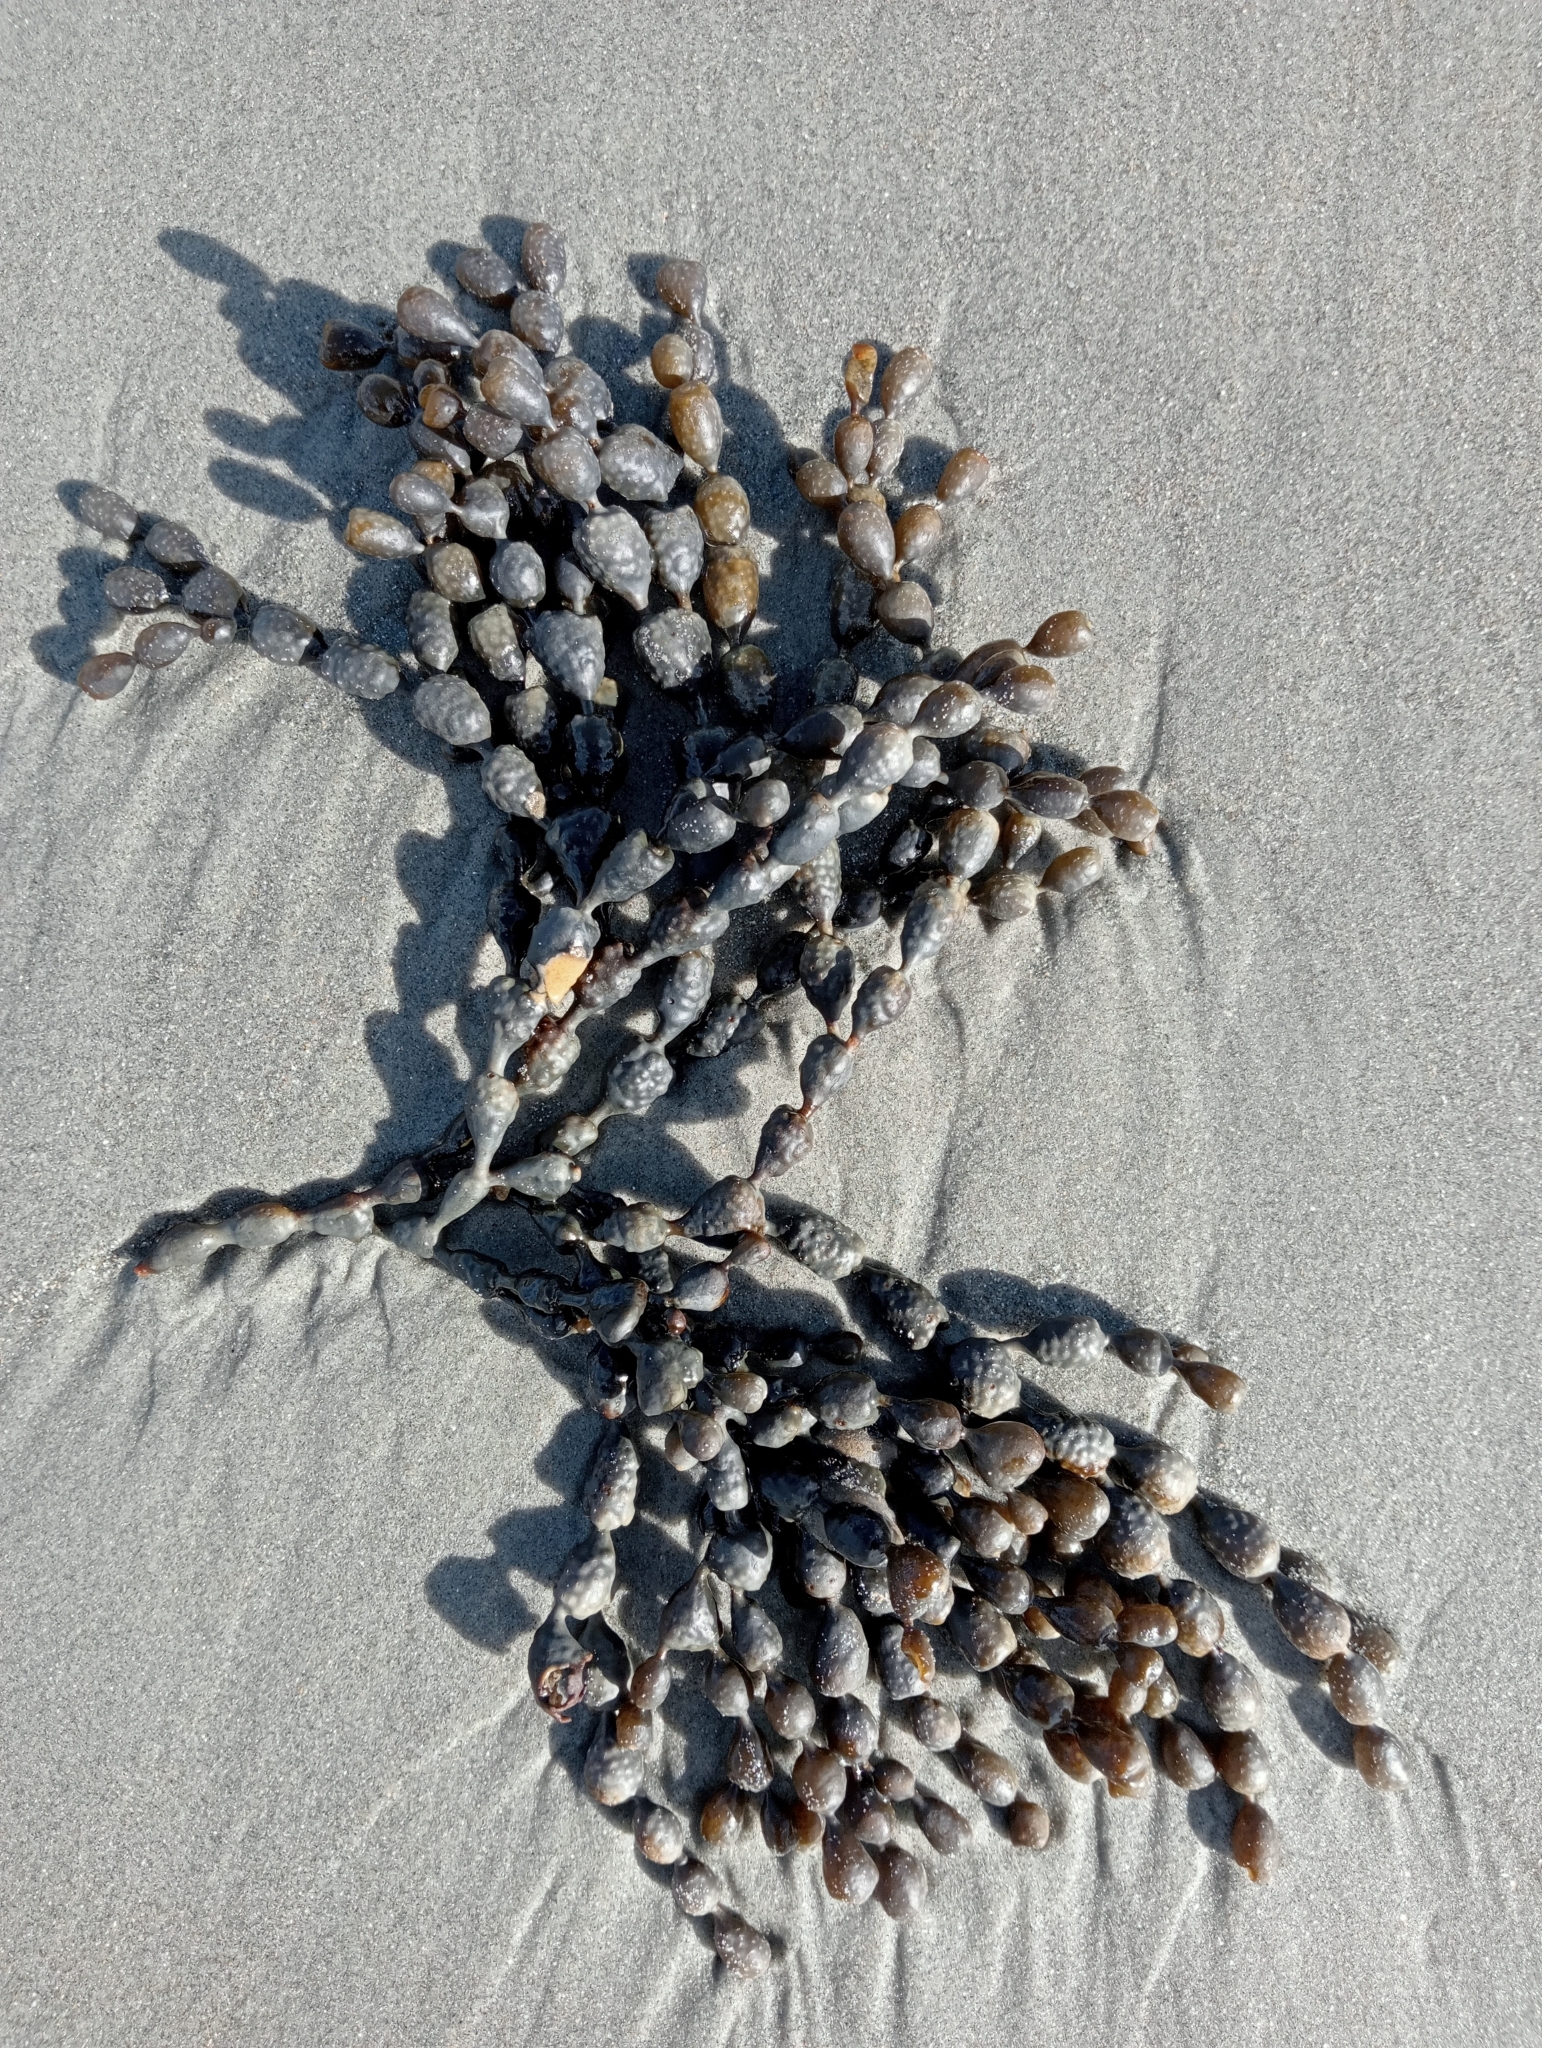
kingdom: Chromista
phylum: Ochrophyta
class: Phaeophyceae
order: Fucales
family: Hormosiraceae
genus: Hormosira
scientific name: Hormosira banksii
